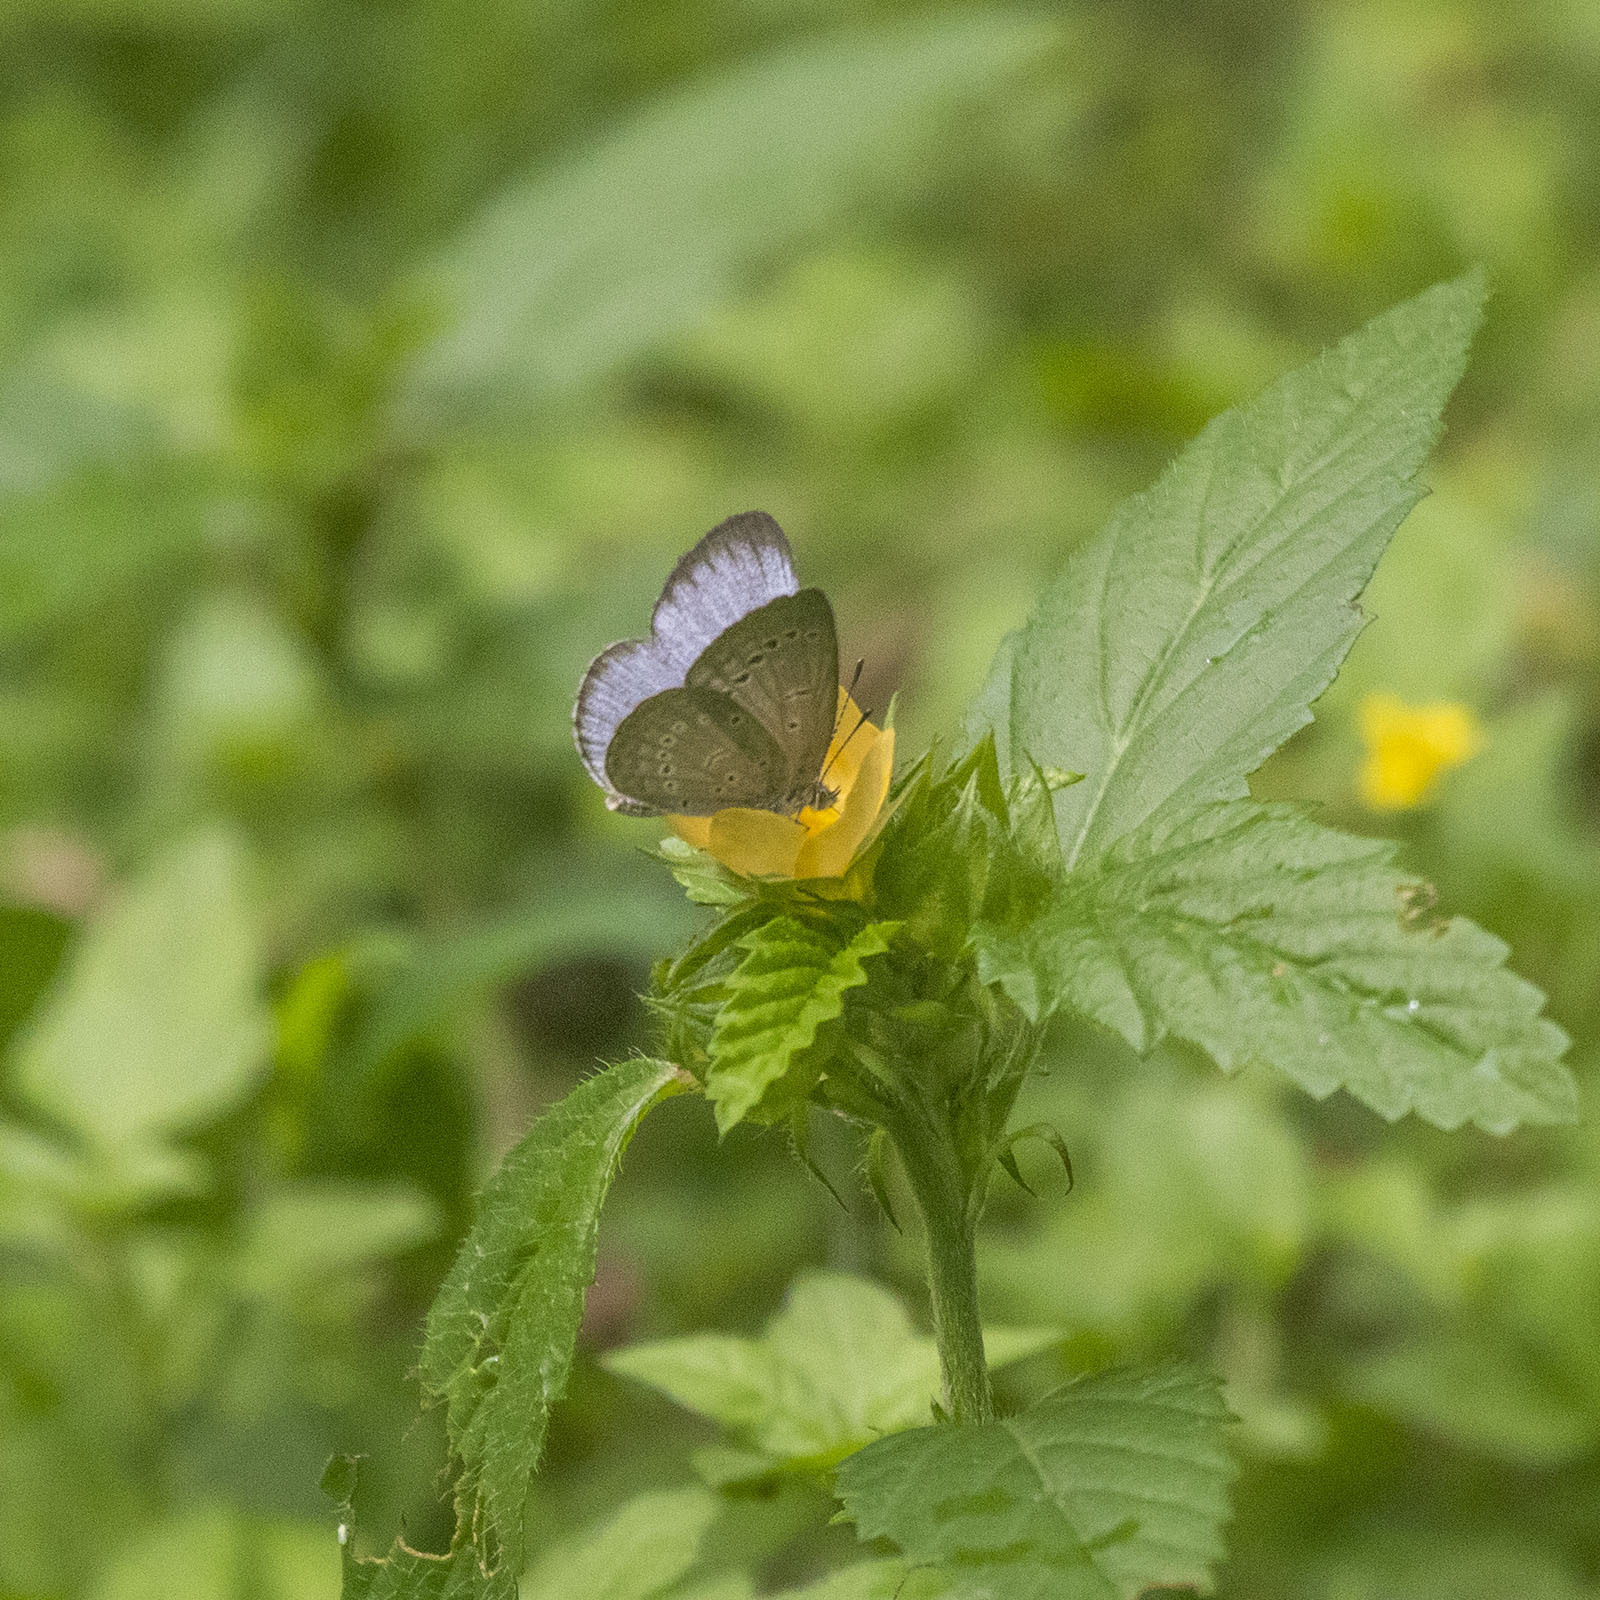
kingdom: Animalia
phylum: Arthropoda
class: Insecta
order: Lepidoptera
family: Lycaenidae
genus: Pseudozizeeria
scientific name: Pseudozizeeria maha
